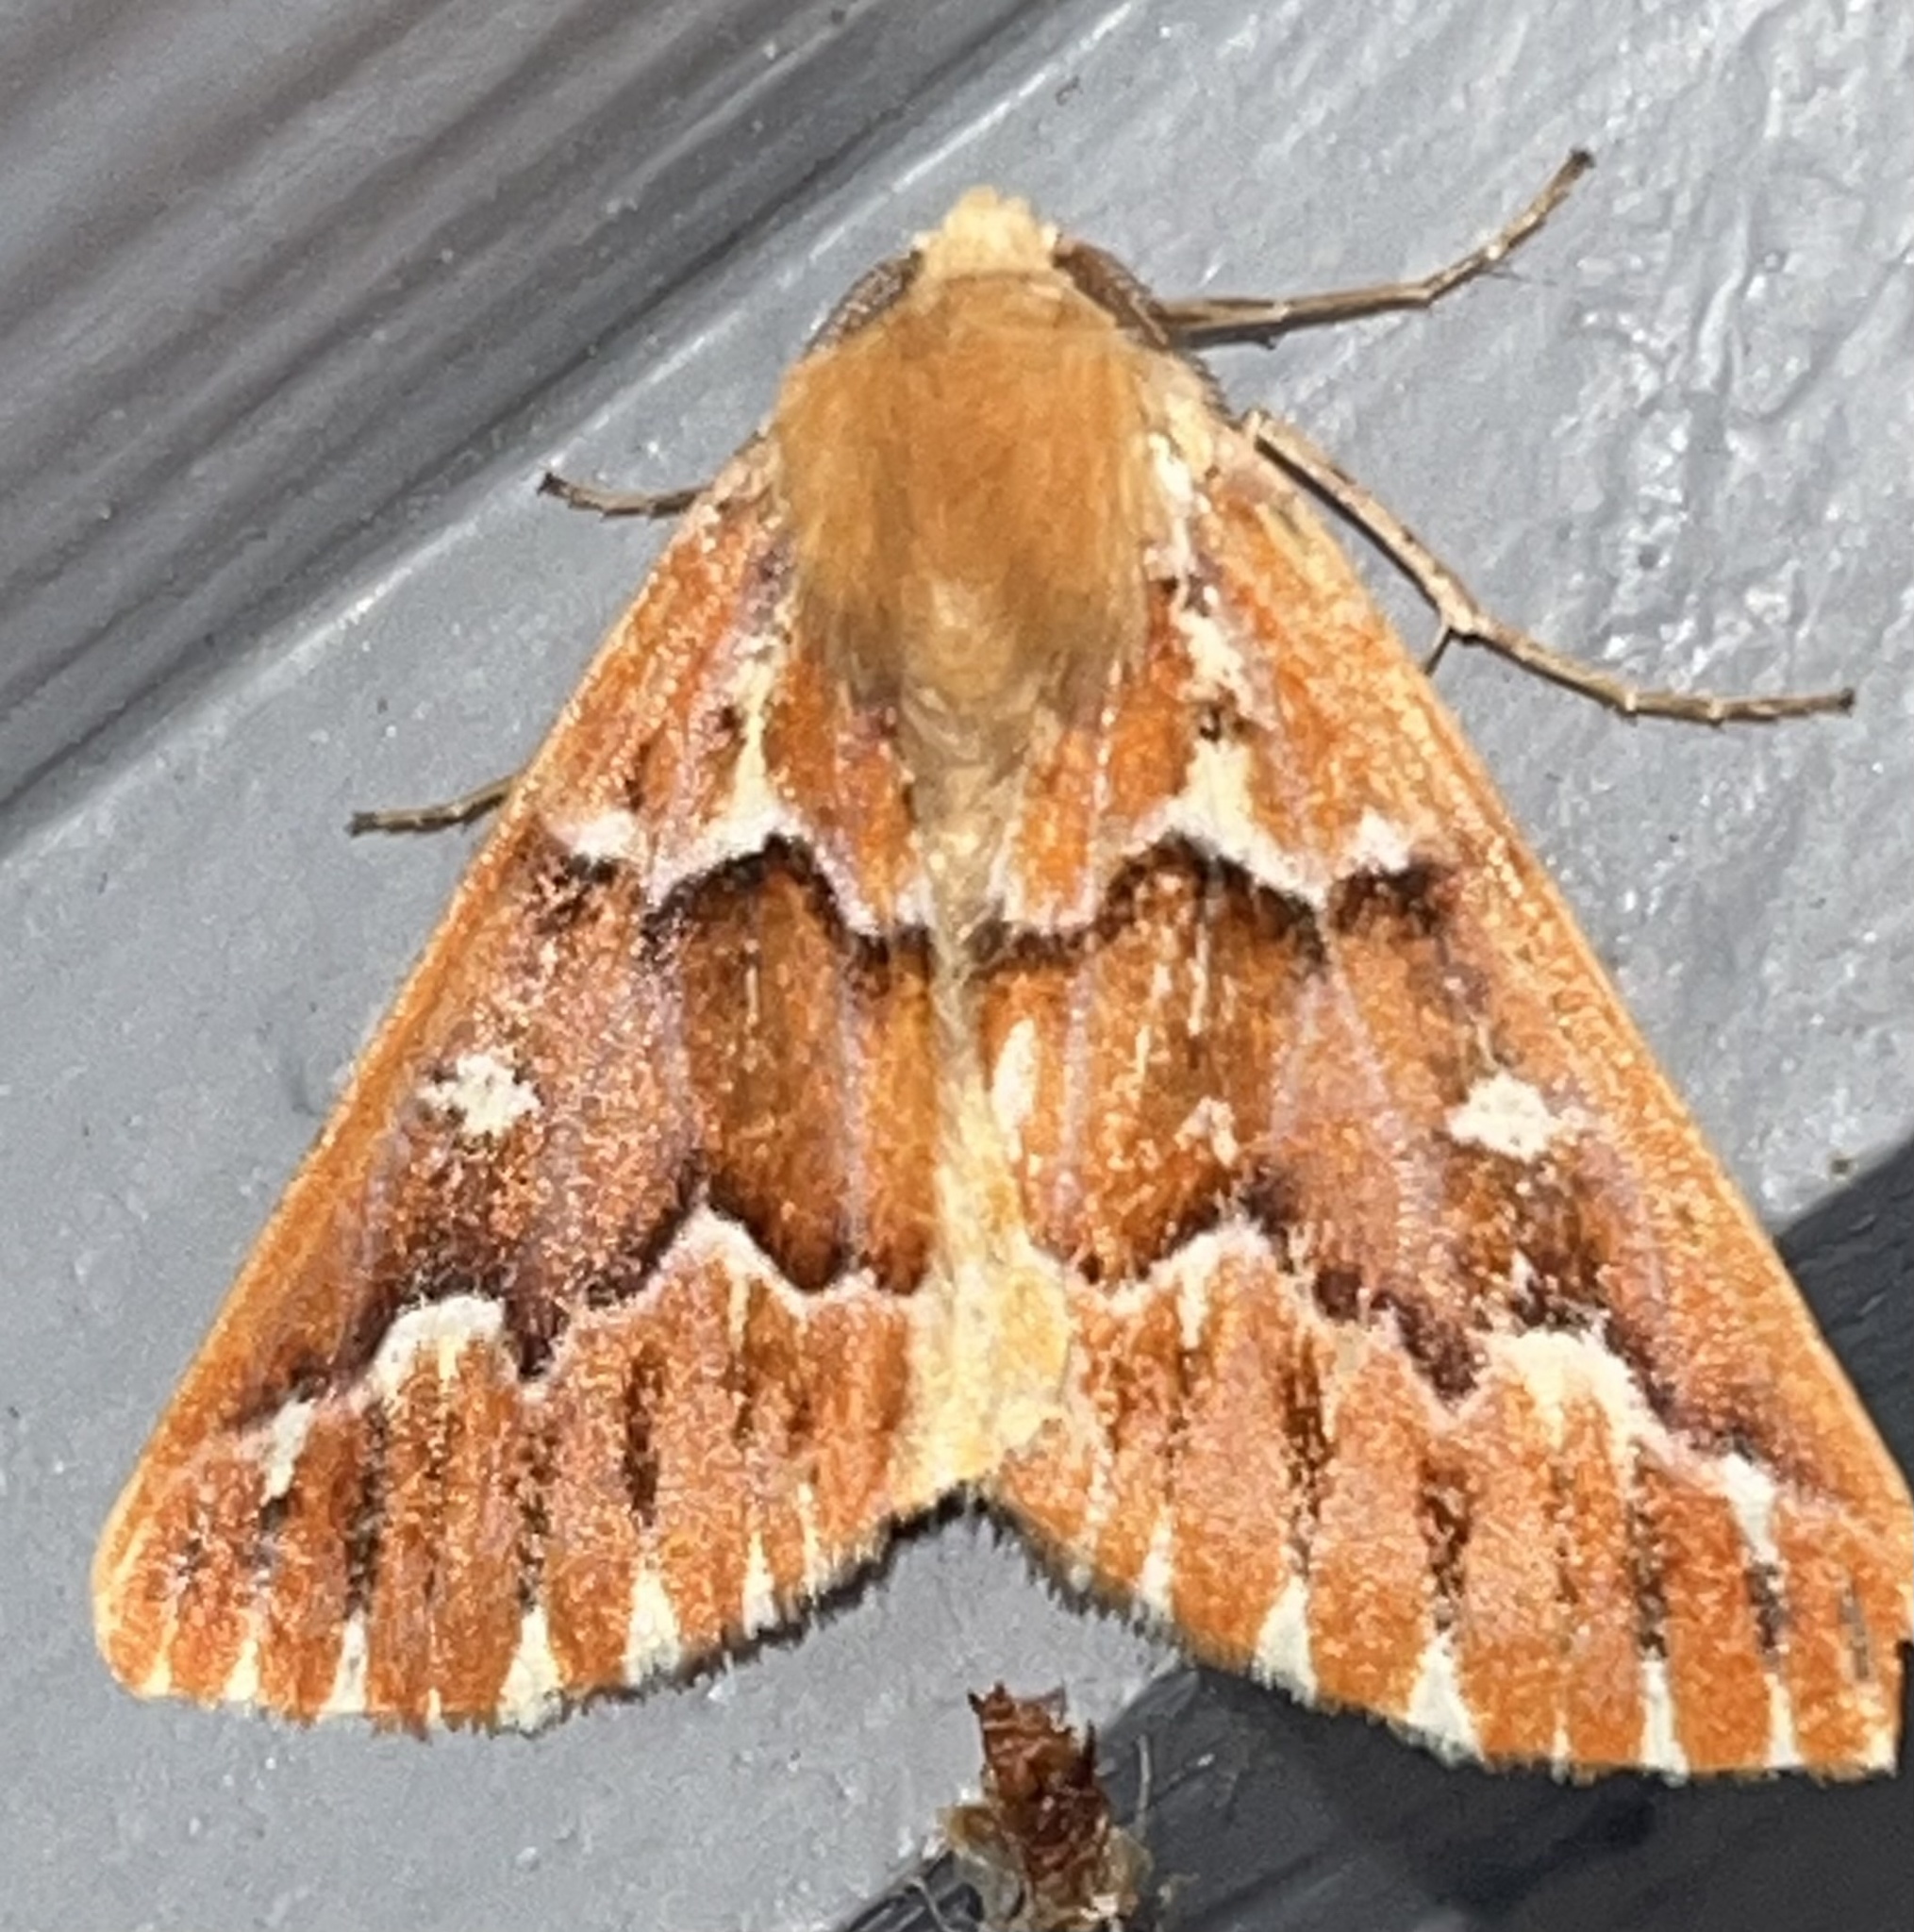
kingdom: Animalia
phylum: Arthropoda
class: Insecta
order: Lepidoptera
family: Geometridae
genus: Caripeta
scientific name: Caripeta aequaliaria
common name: Red girdle moth
